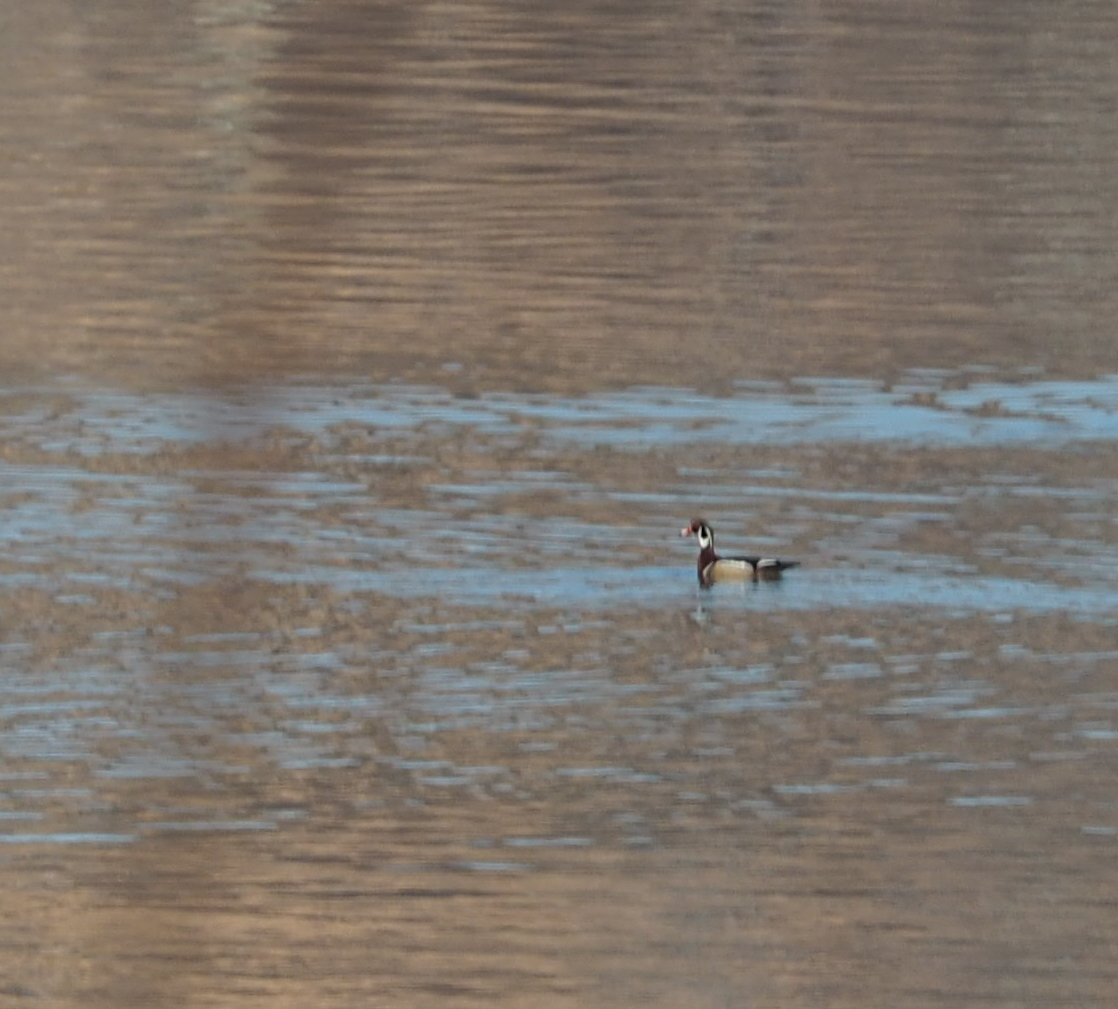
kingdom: Animalia
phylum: Chordata
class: Aves
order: Anseriformes
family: Anatidae
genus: Aix
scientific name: Aix sponsa
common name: Wood duck
